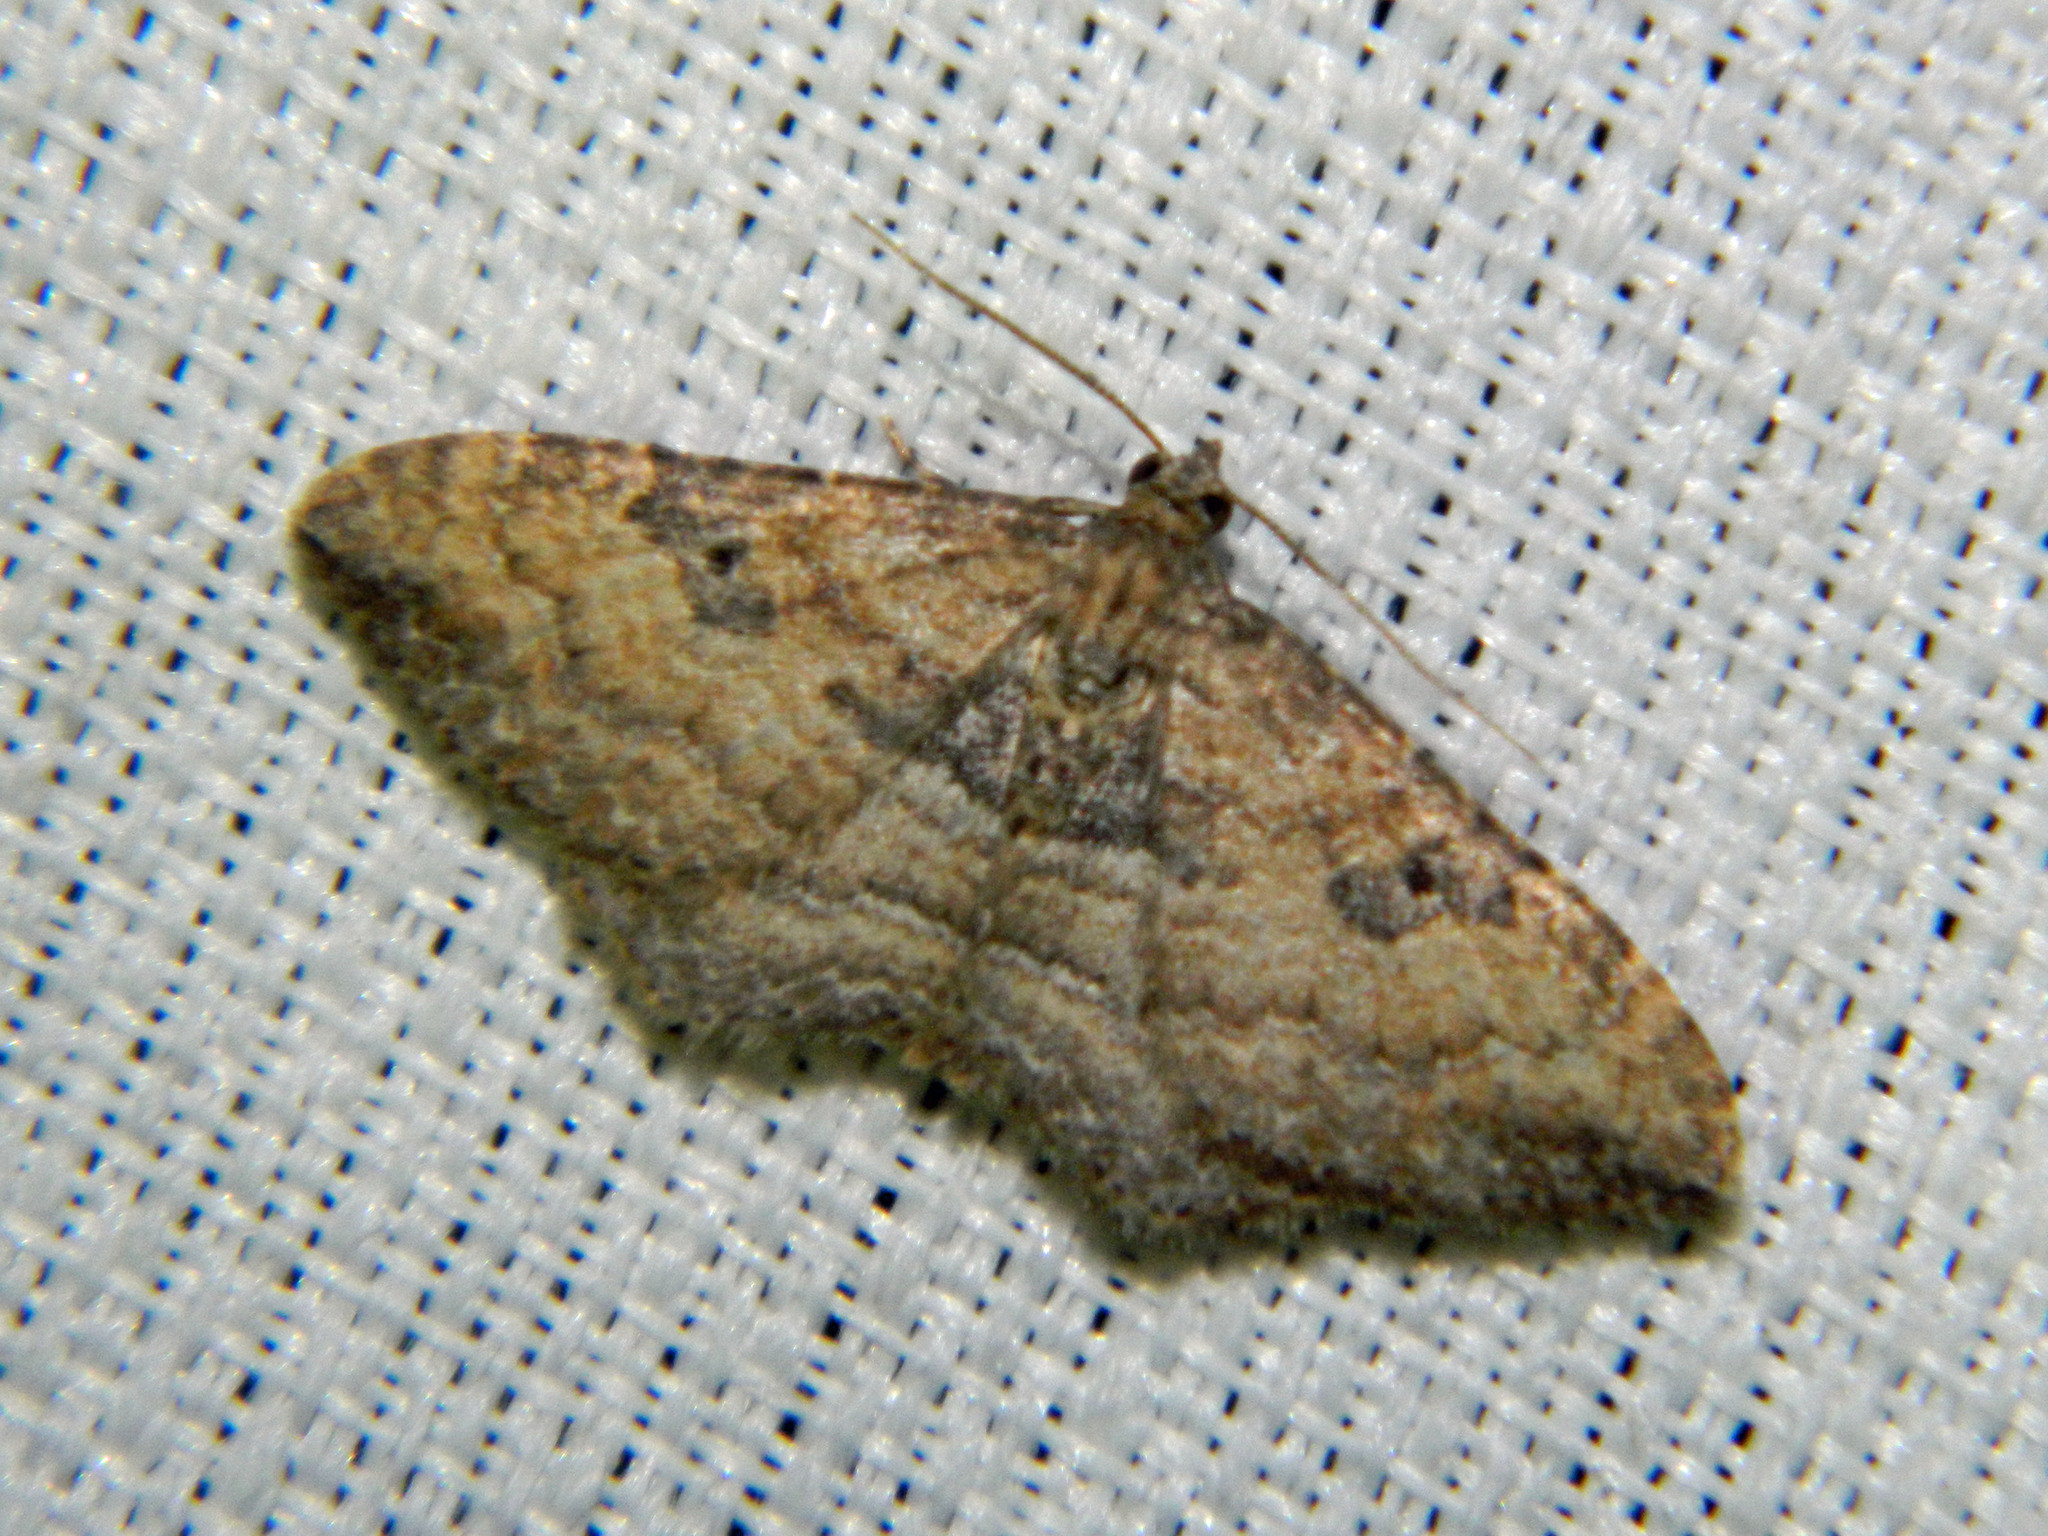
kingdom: Animalia
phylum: Arthropoda
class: Insecta
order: Lepidoptera
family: Geometridae
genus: Orthonama
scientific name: Orthonama obstipata
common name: The gem
